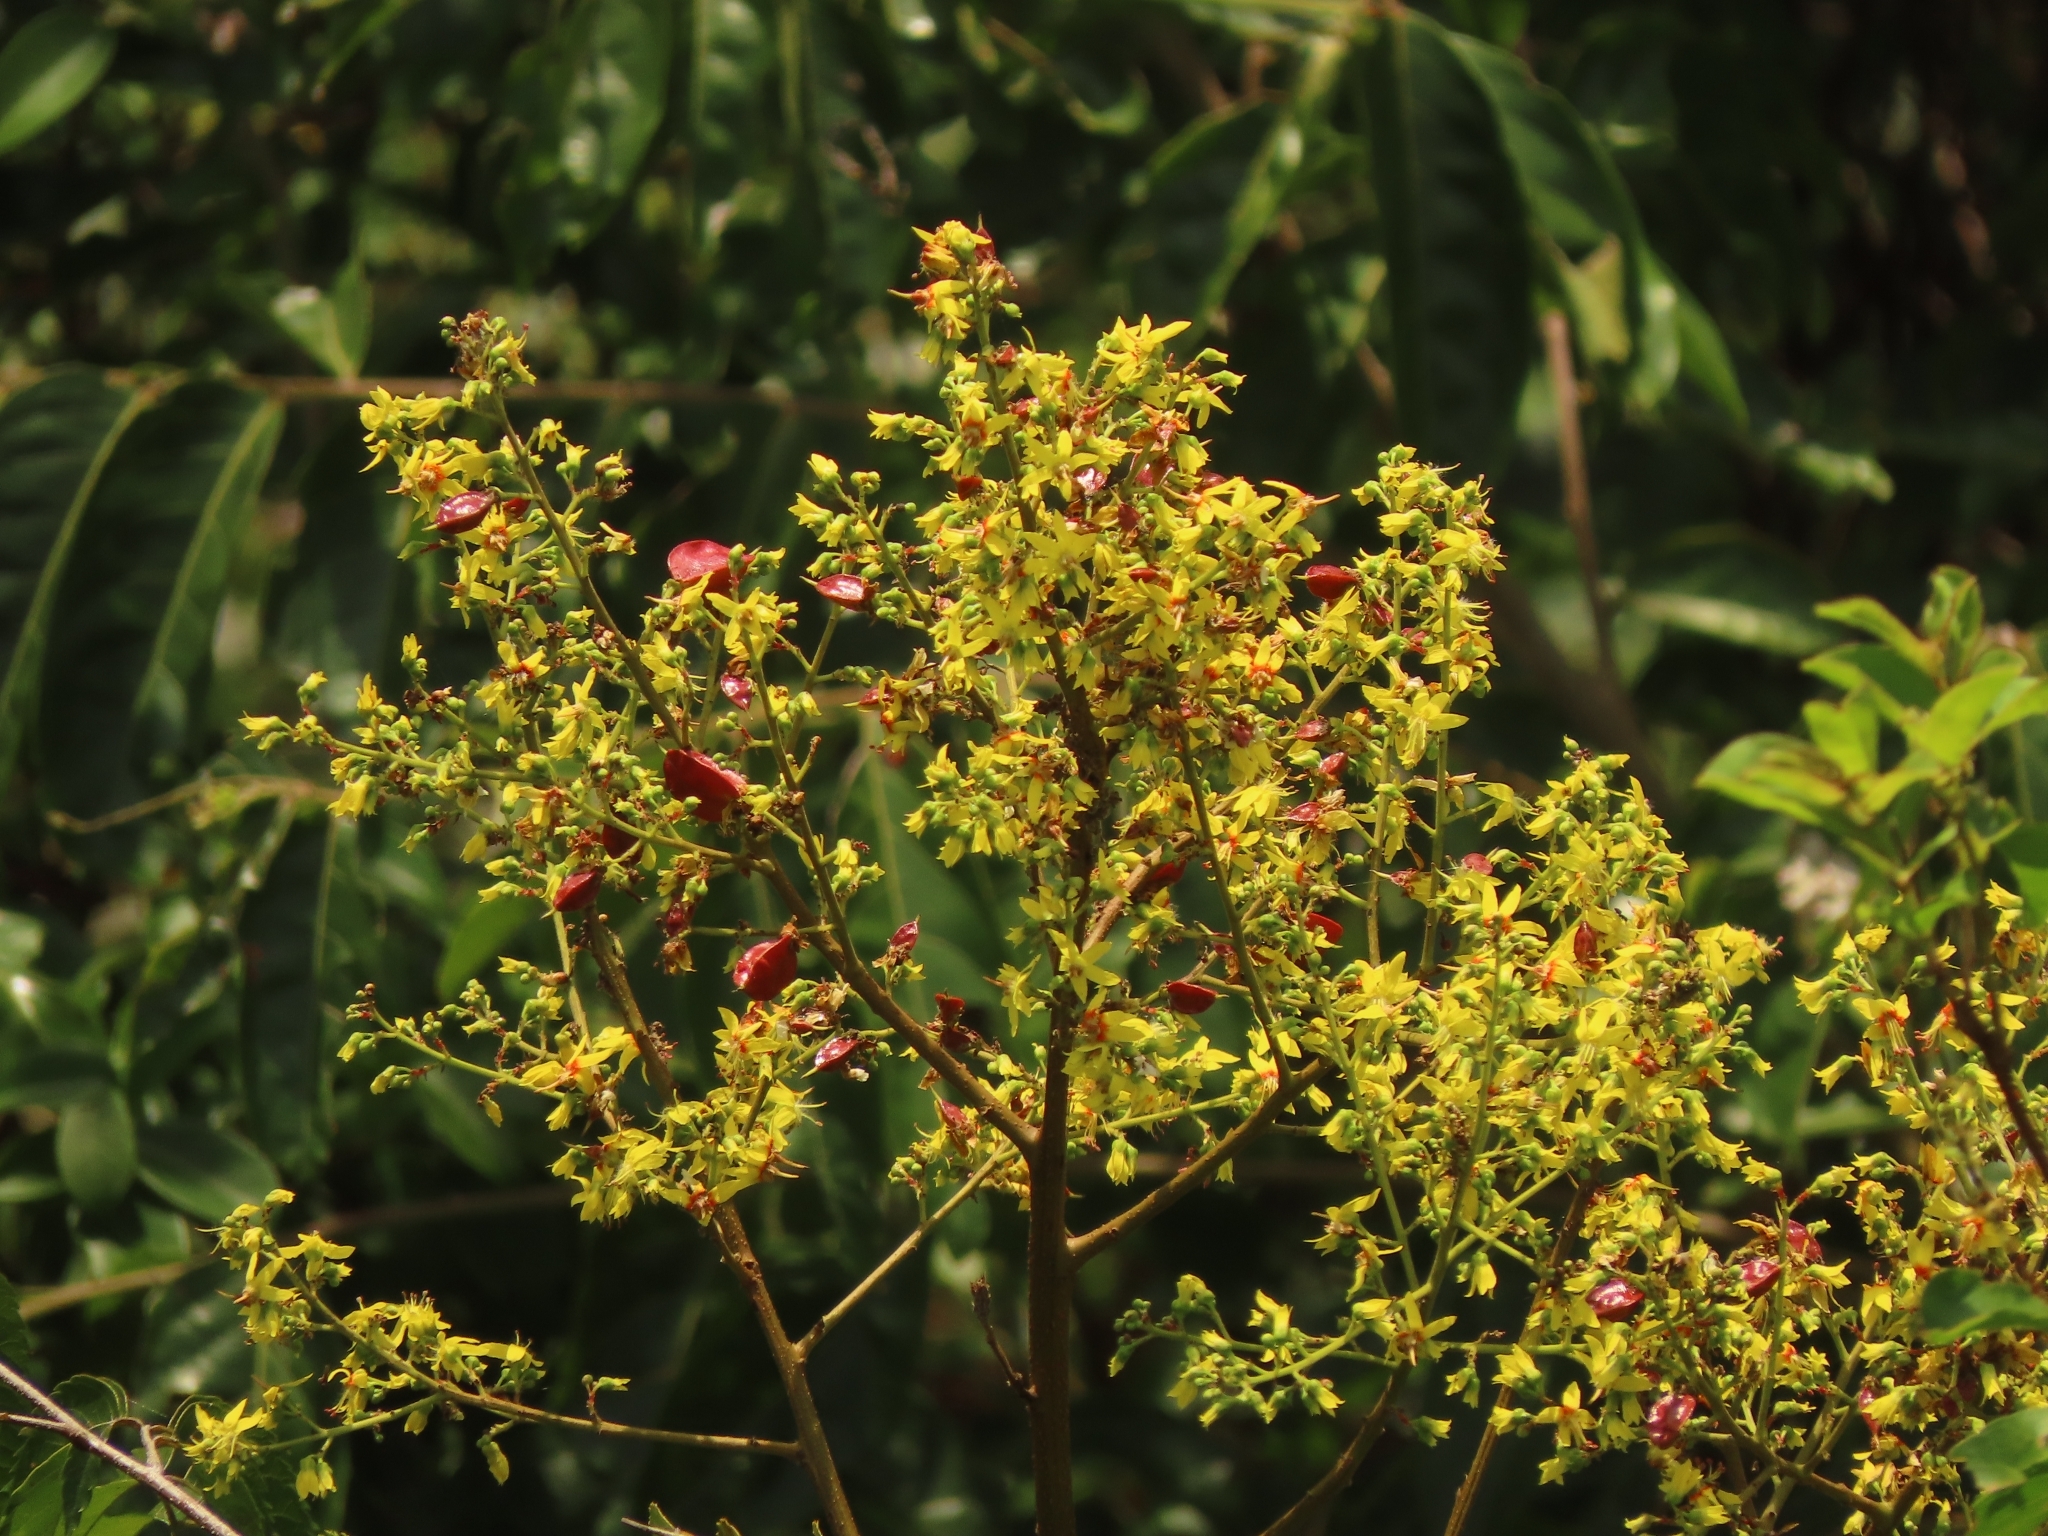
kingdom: Plantae
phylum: Tracheophyta
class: Magnoliopsida
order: Sapindales
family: Sapindaceae
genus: Koelreuteria
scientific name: Koelreuteria elegans
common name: Chinese flame tree
